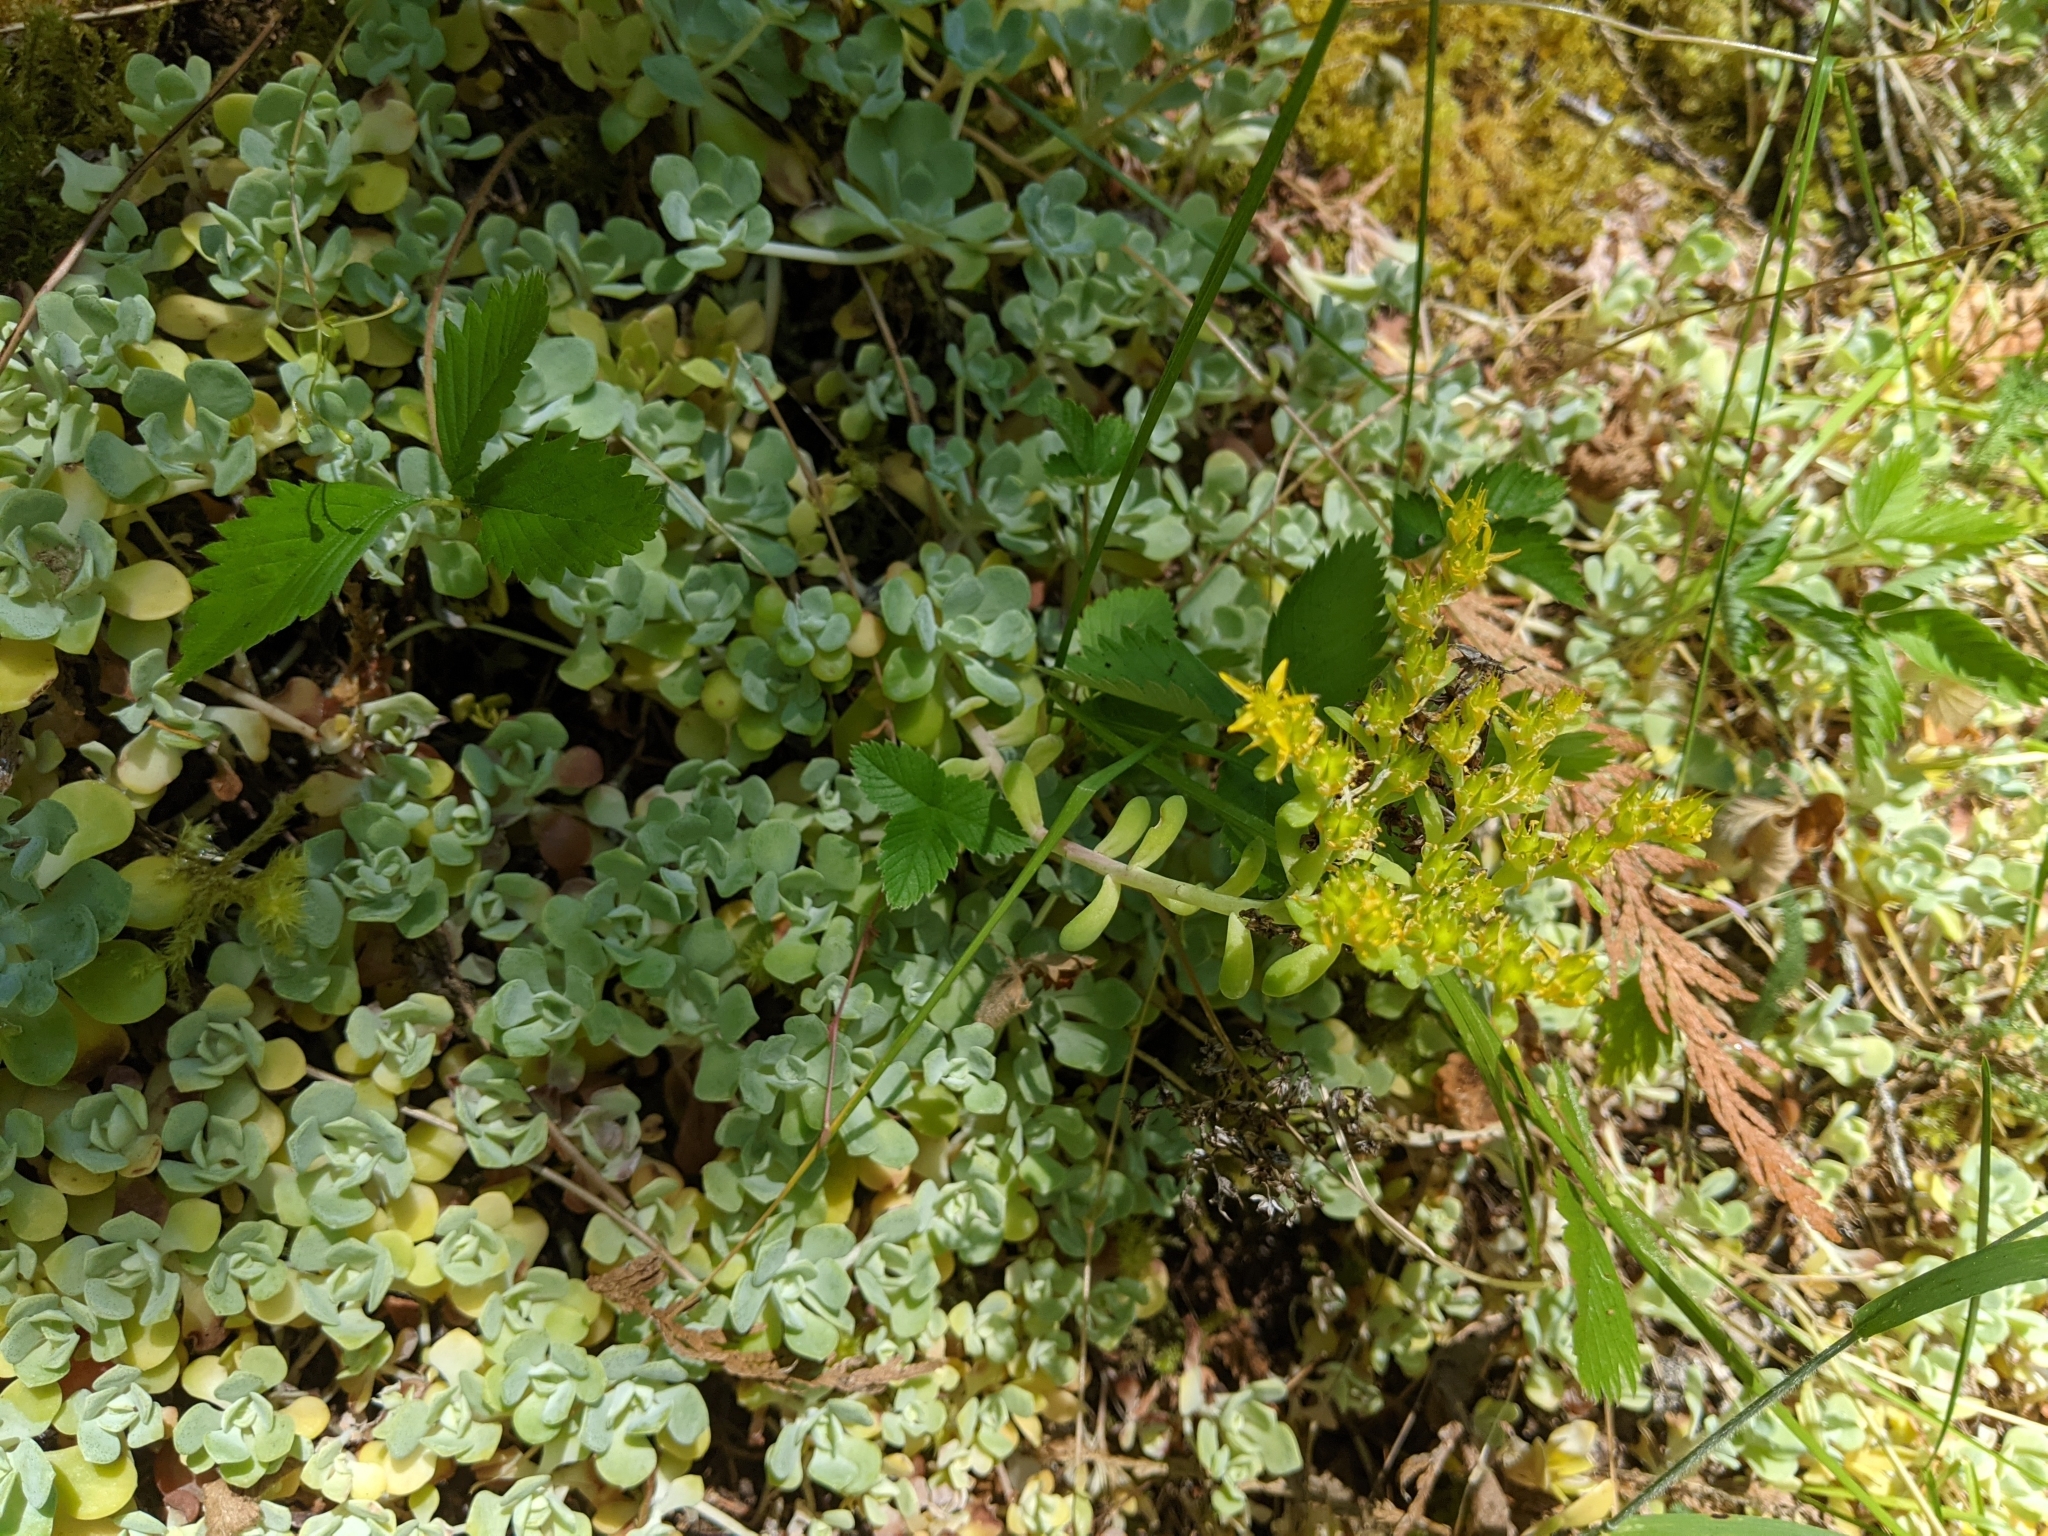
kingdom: Plantae
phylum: Tracheophyta
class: Magnoliopsida
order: Saxifragales
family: Crassulaceae
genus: Sedum
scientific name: Sedum spathulifolium
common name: Colorado stonecrop
